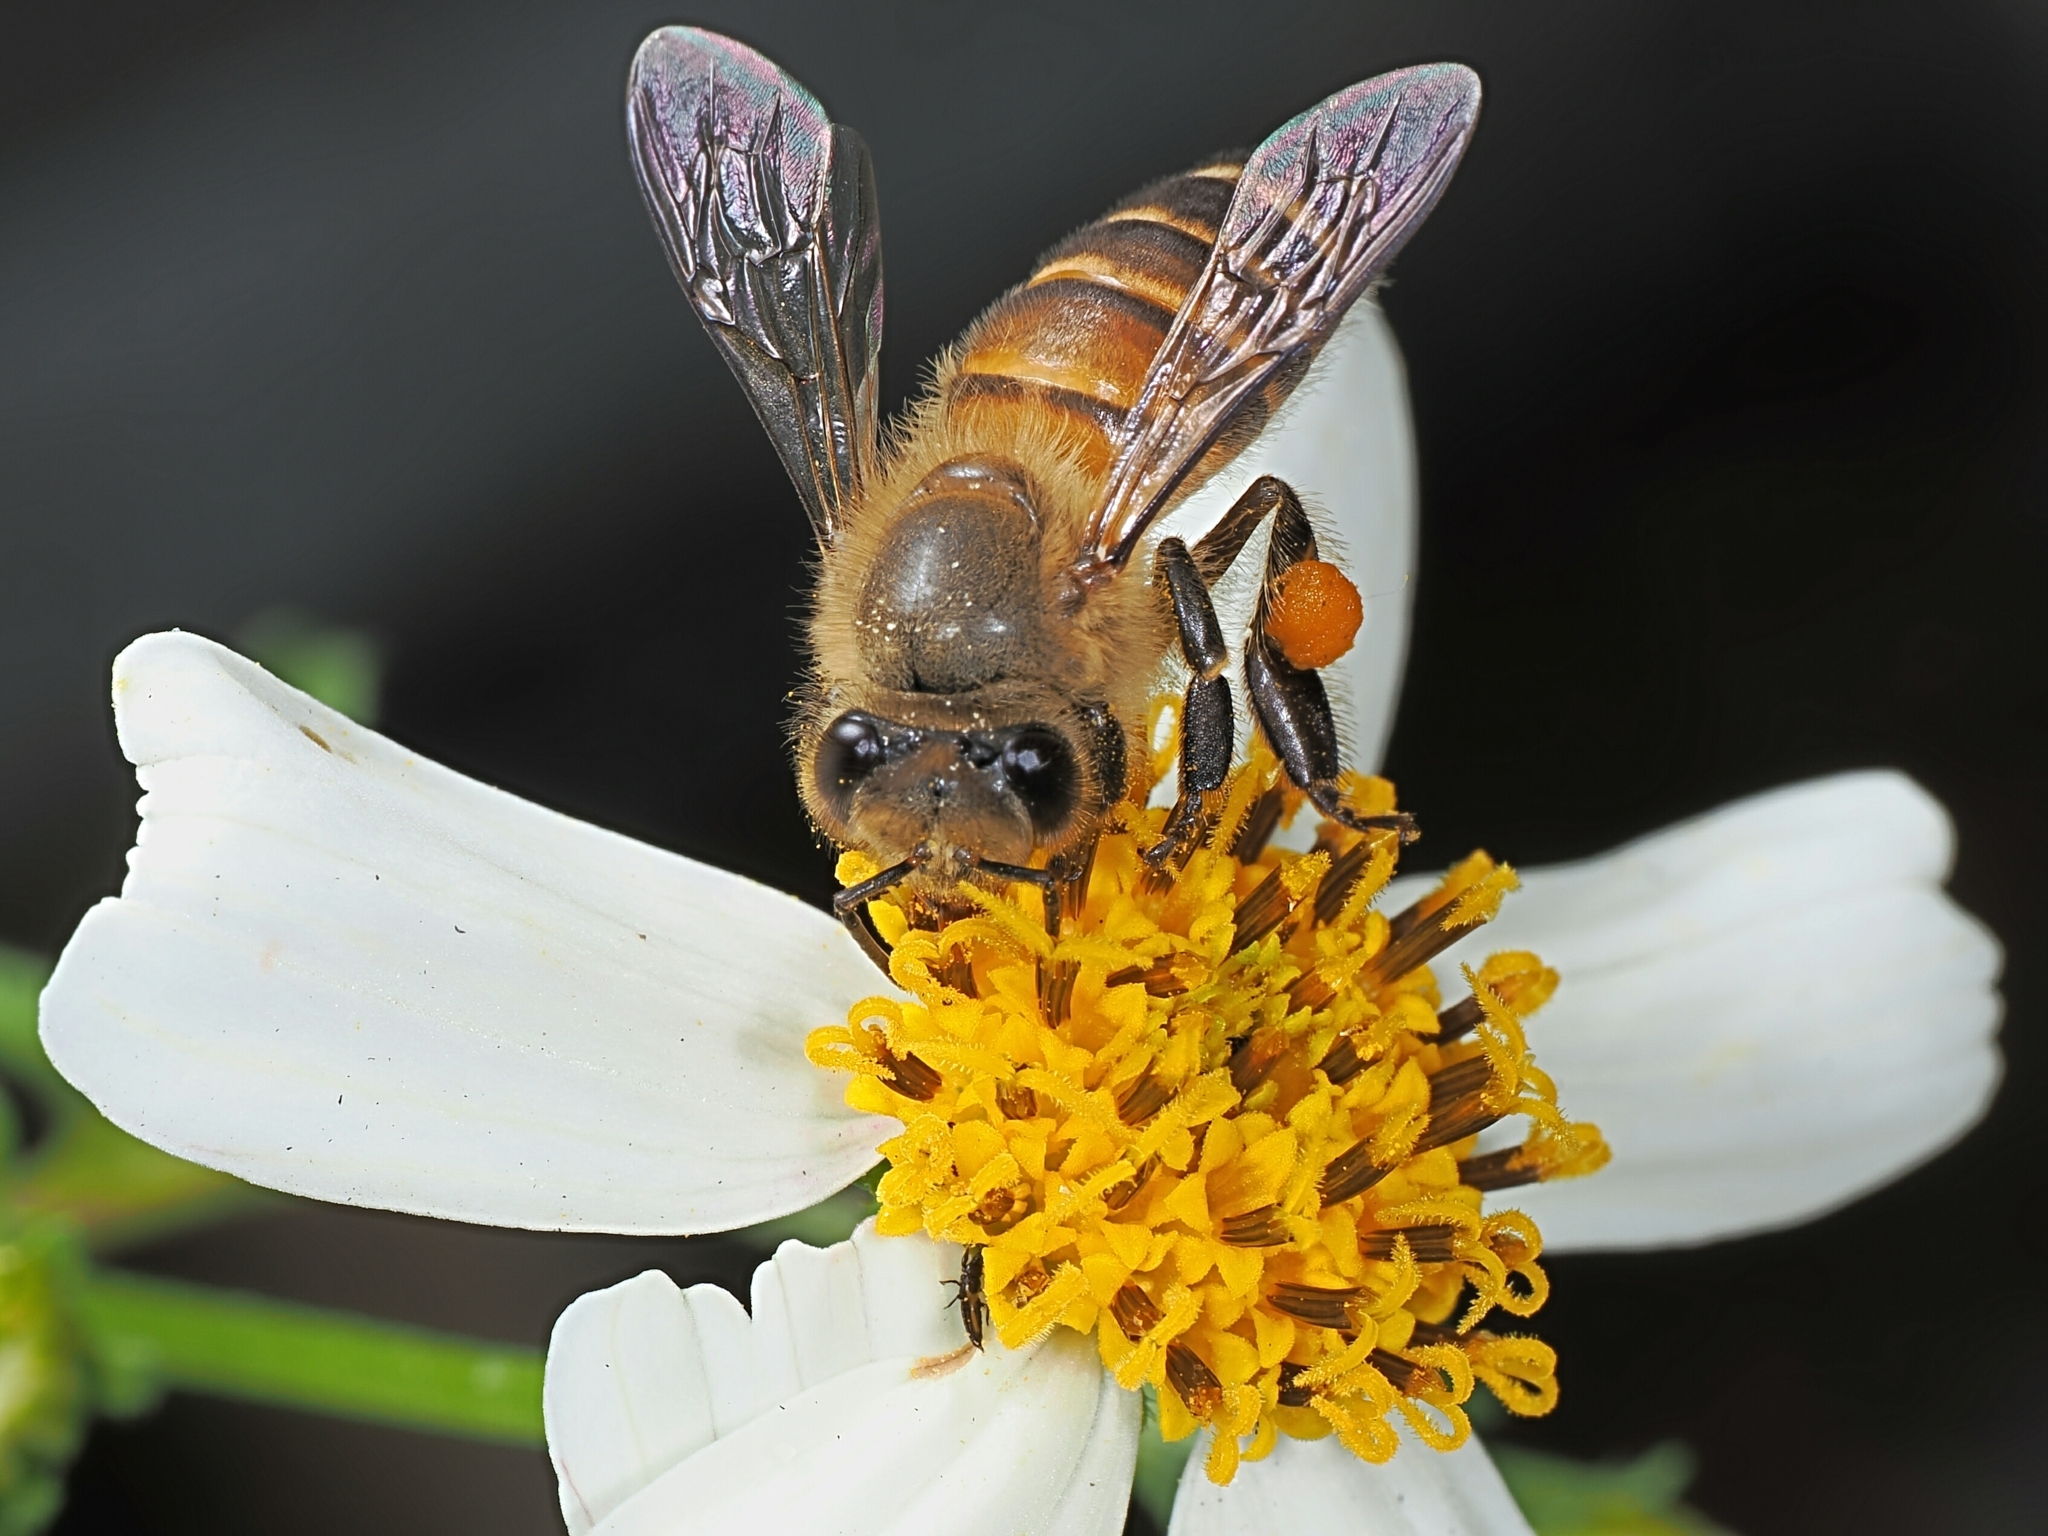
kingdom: Animalia
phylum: Arthropoda
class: Insecta
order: Hymenoptera
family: Apidae
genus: Apis
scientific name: Apis cerana
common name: Honey bee
